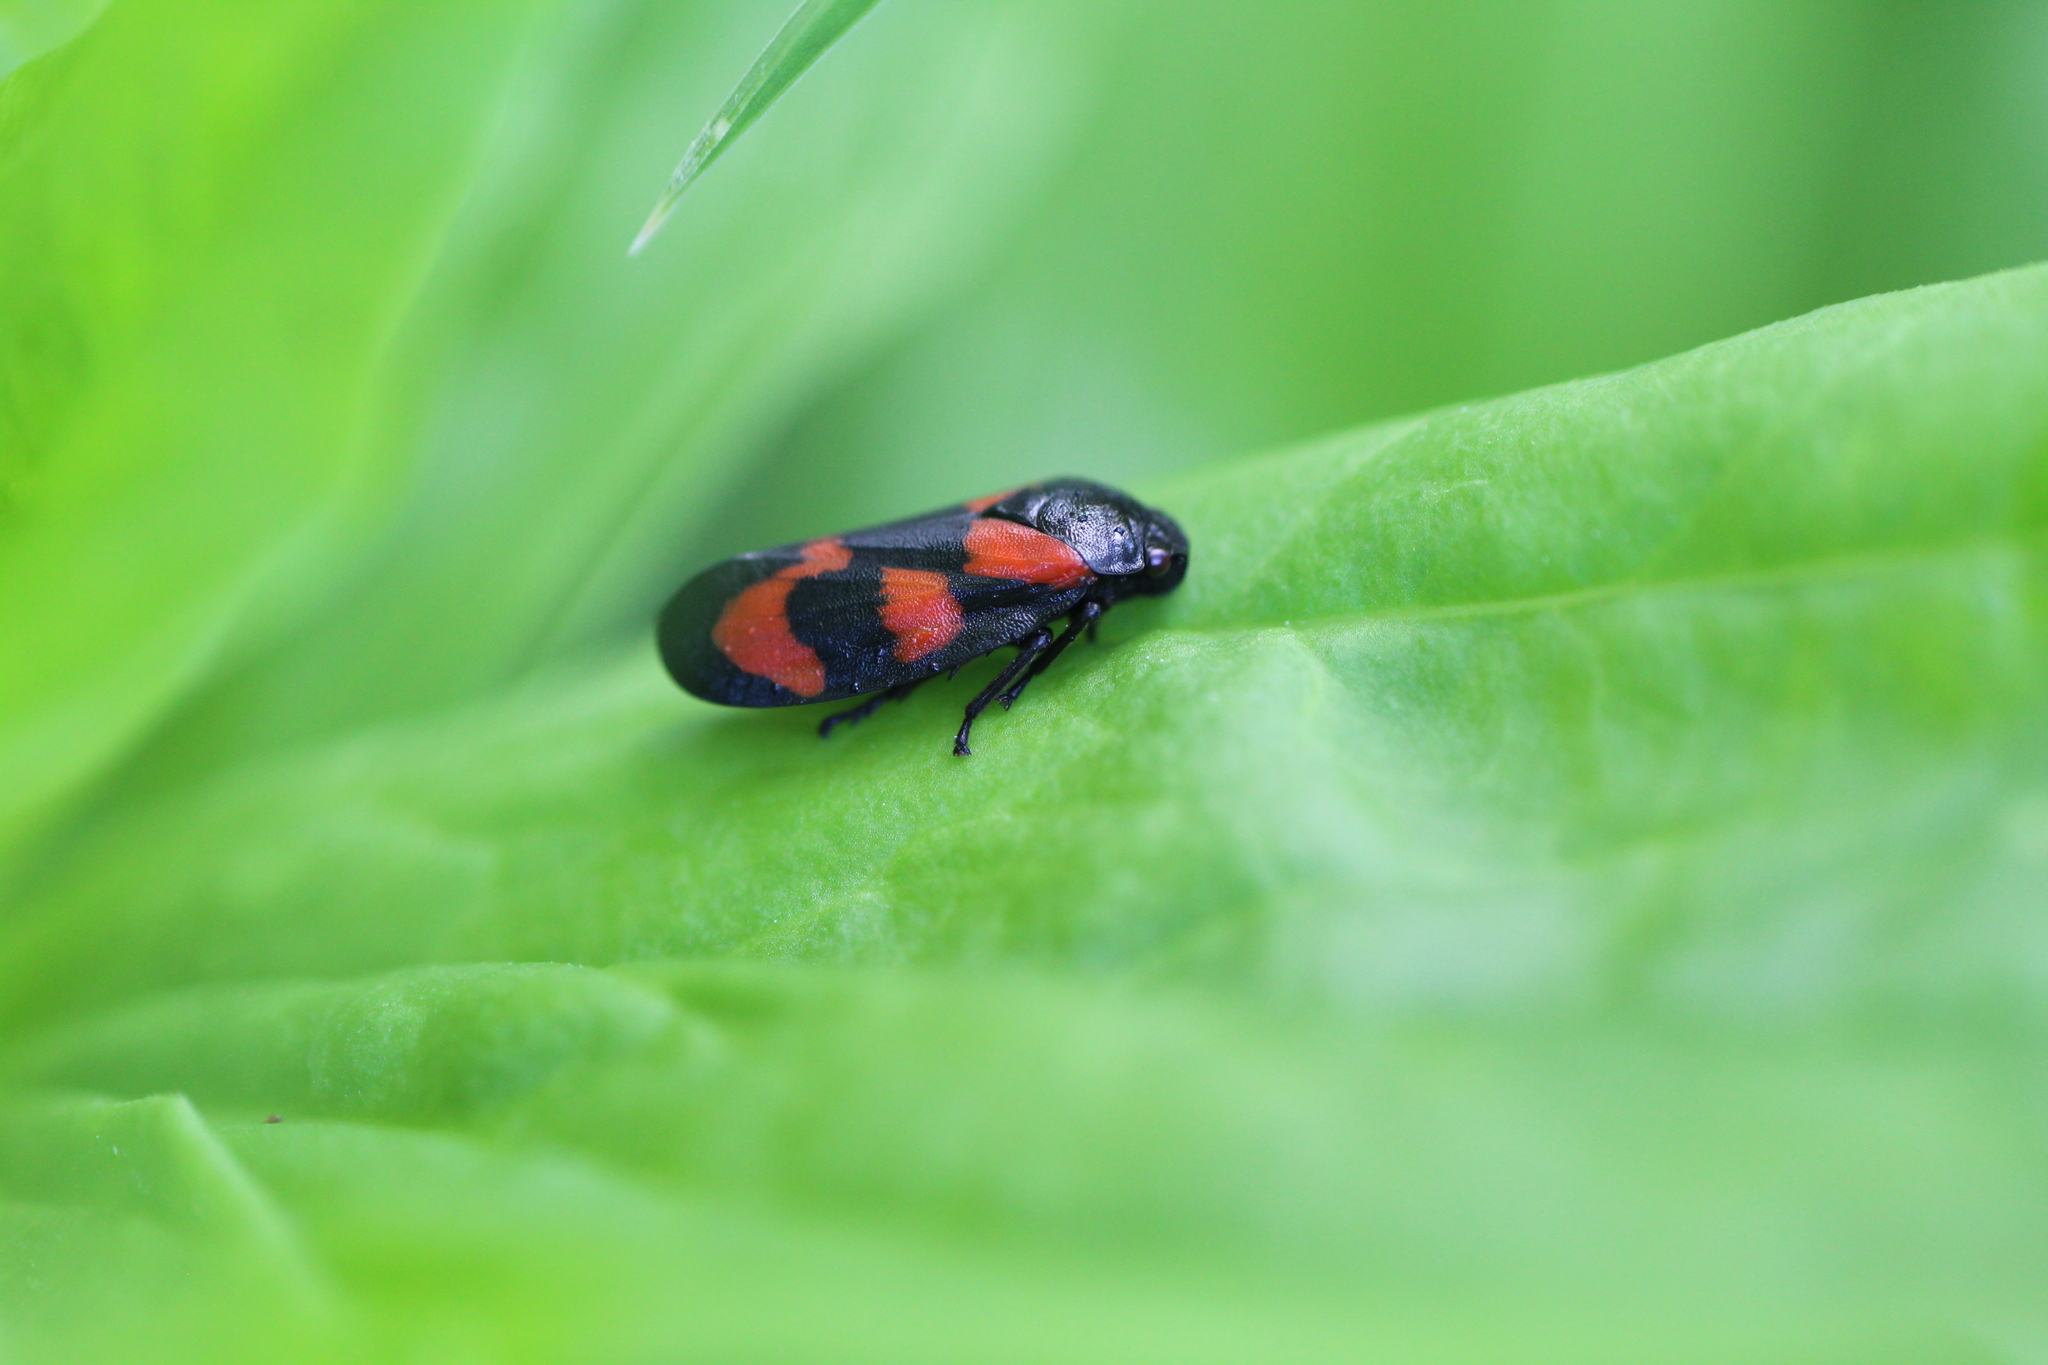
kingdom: Animalia
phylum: Arthropoda
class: Insecta
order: Hemiptera
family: Cercopidae
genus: Cercopis
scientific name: Cercopis vulnerata
